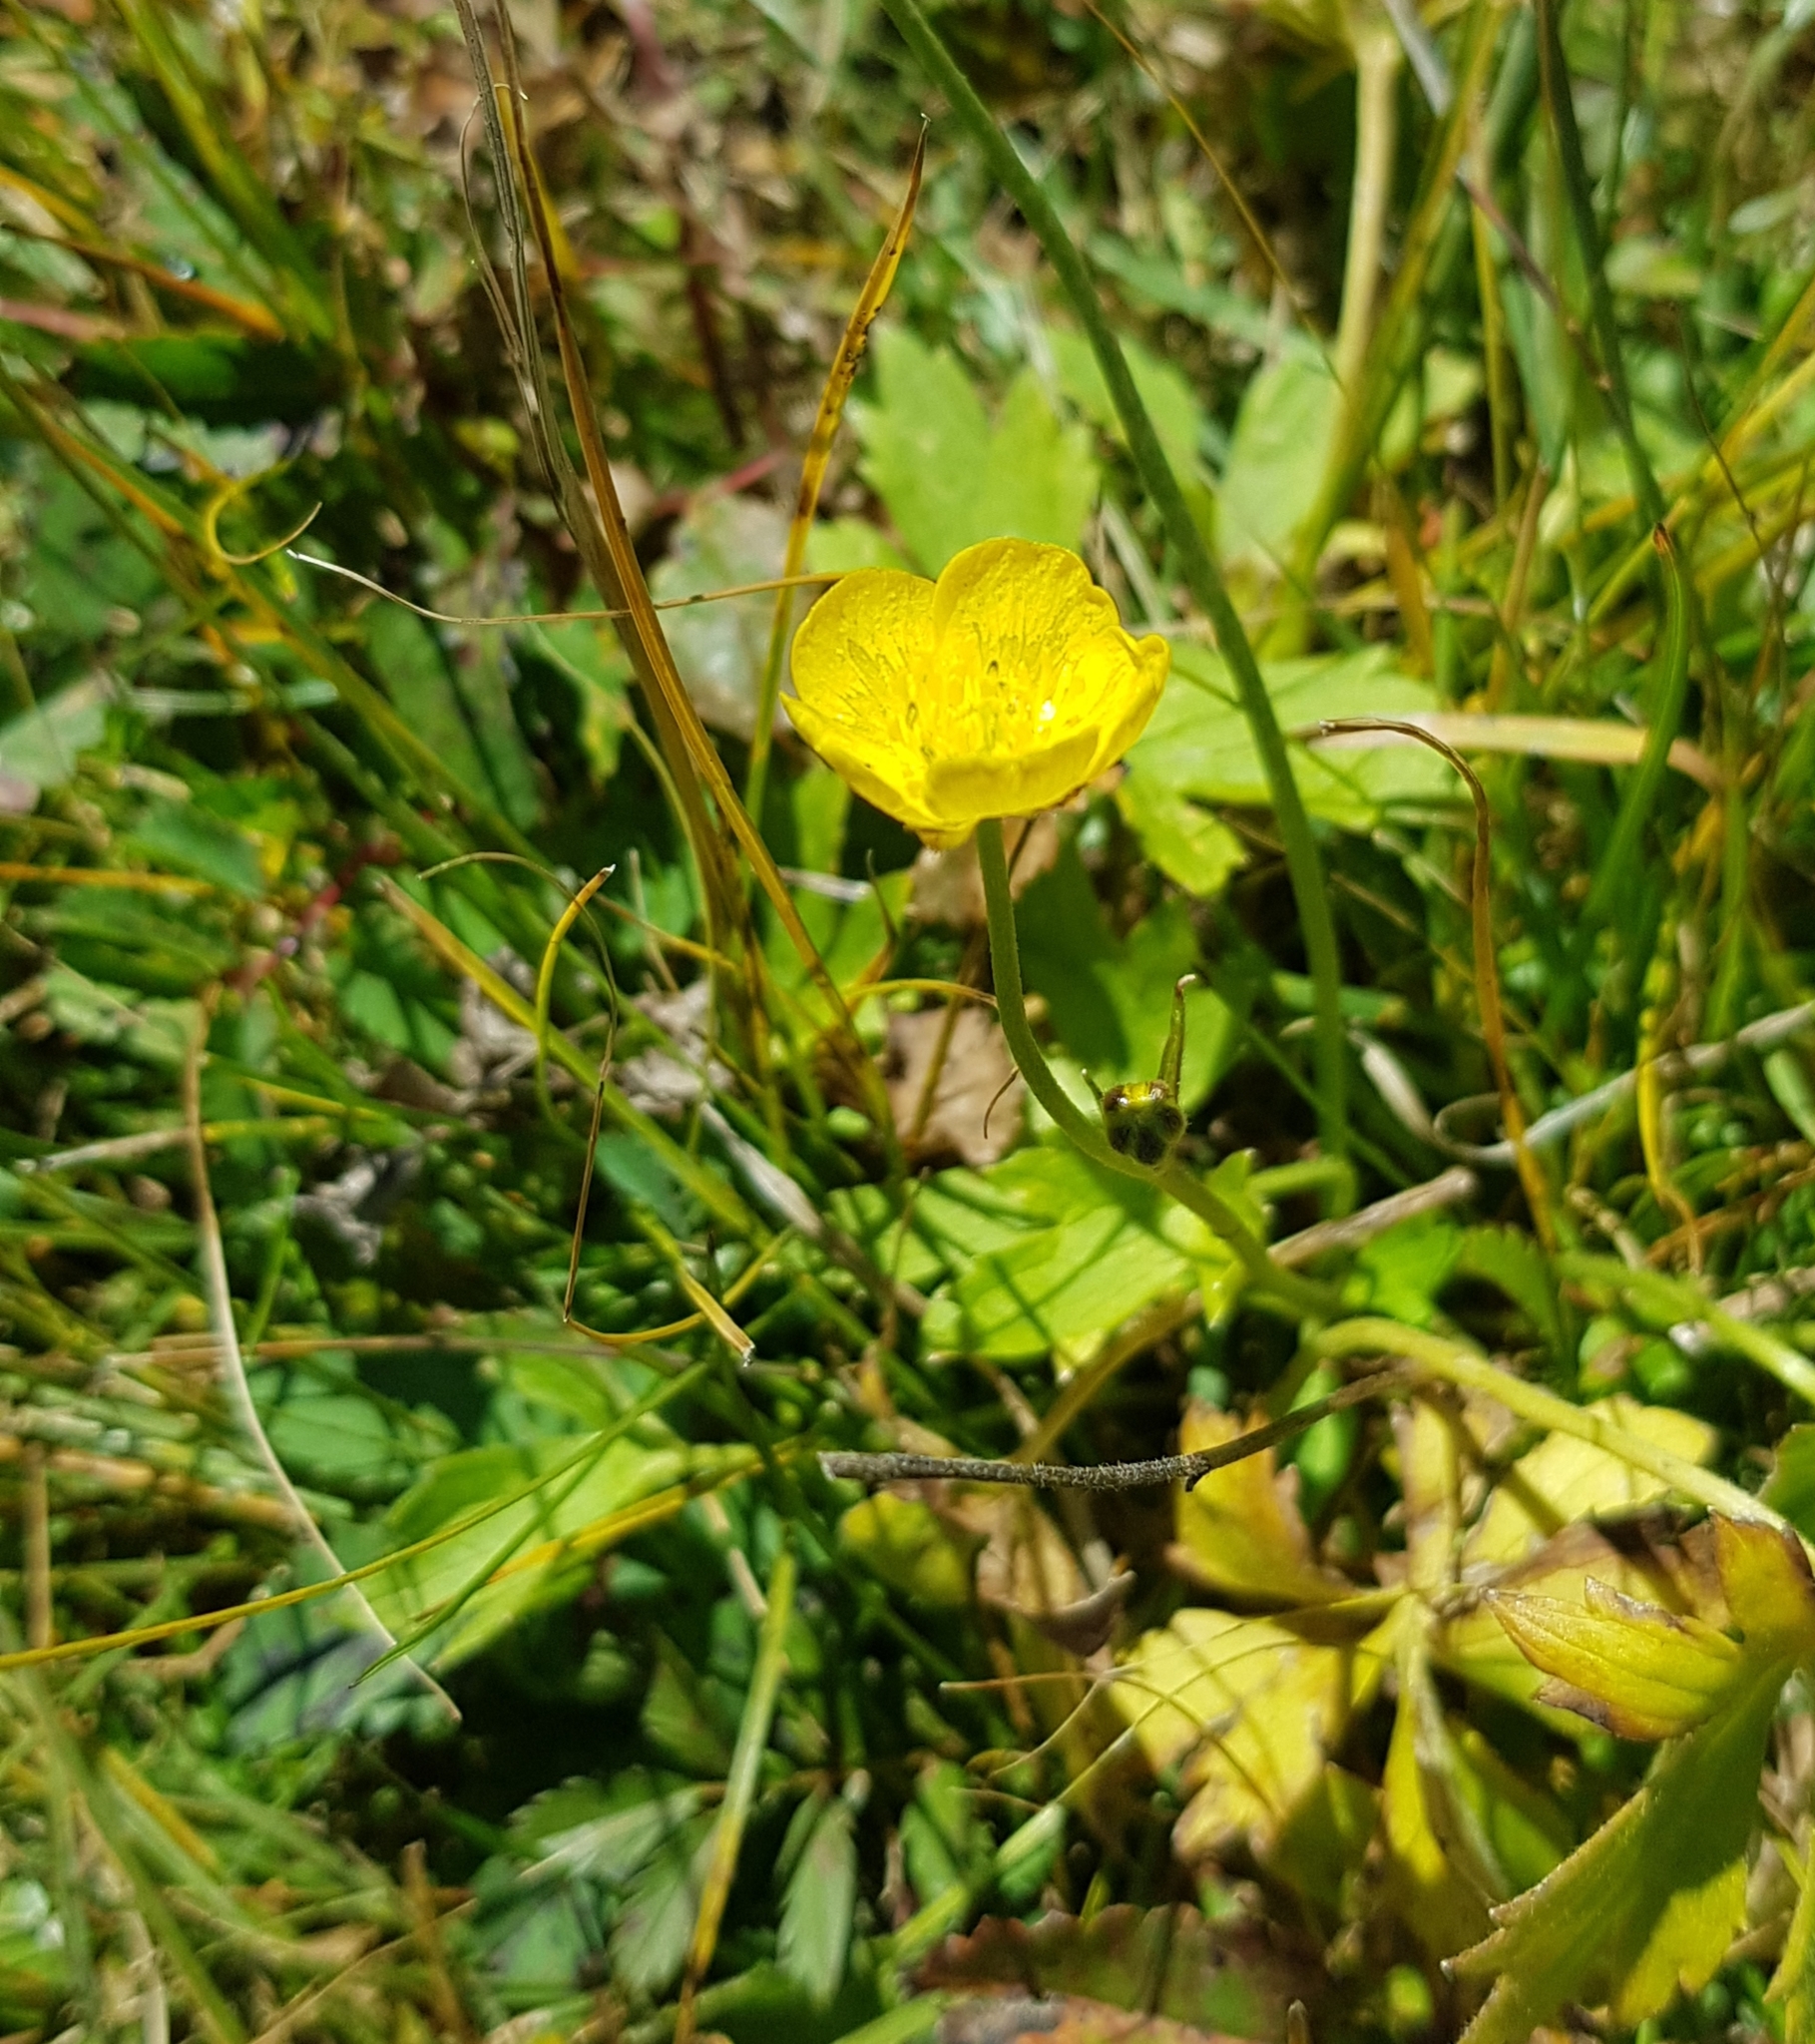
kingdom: Plantae
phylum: Tracheophyta
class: Magnoliopsida
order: Ranunculales
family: Ranunculaceae
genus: Ranunculus
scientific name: Ranunculus repens
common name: Creeping buttercup
